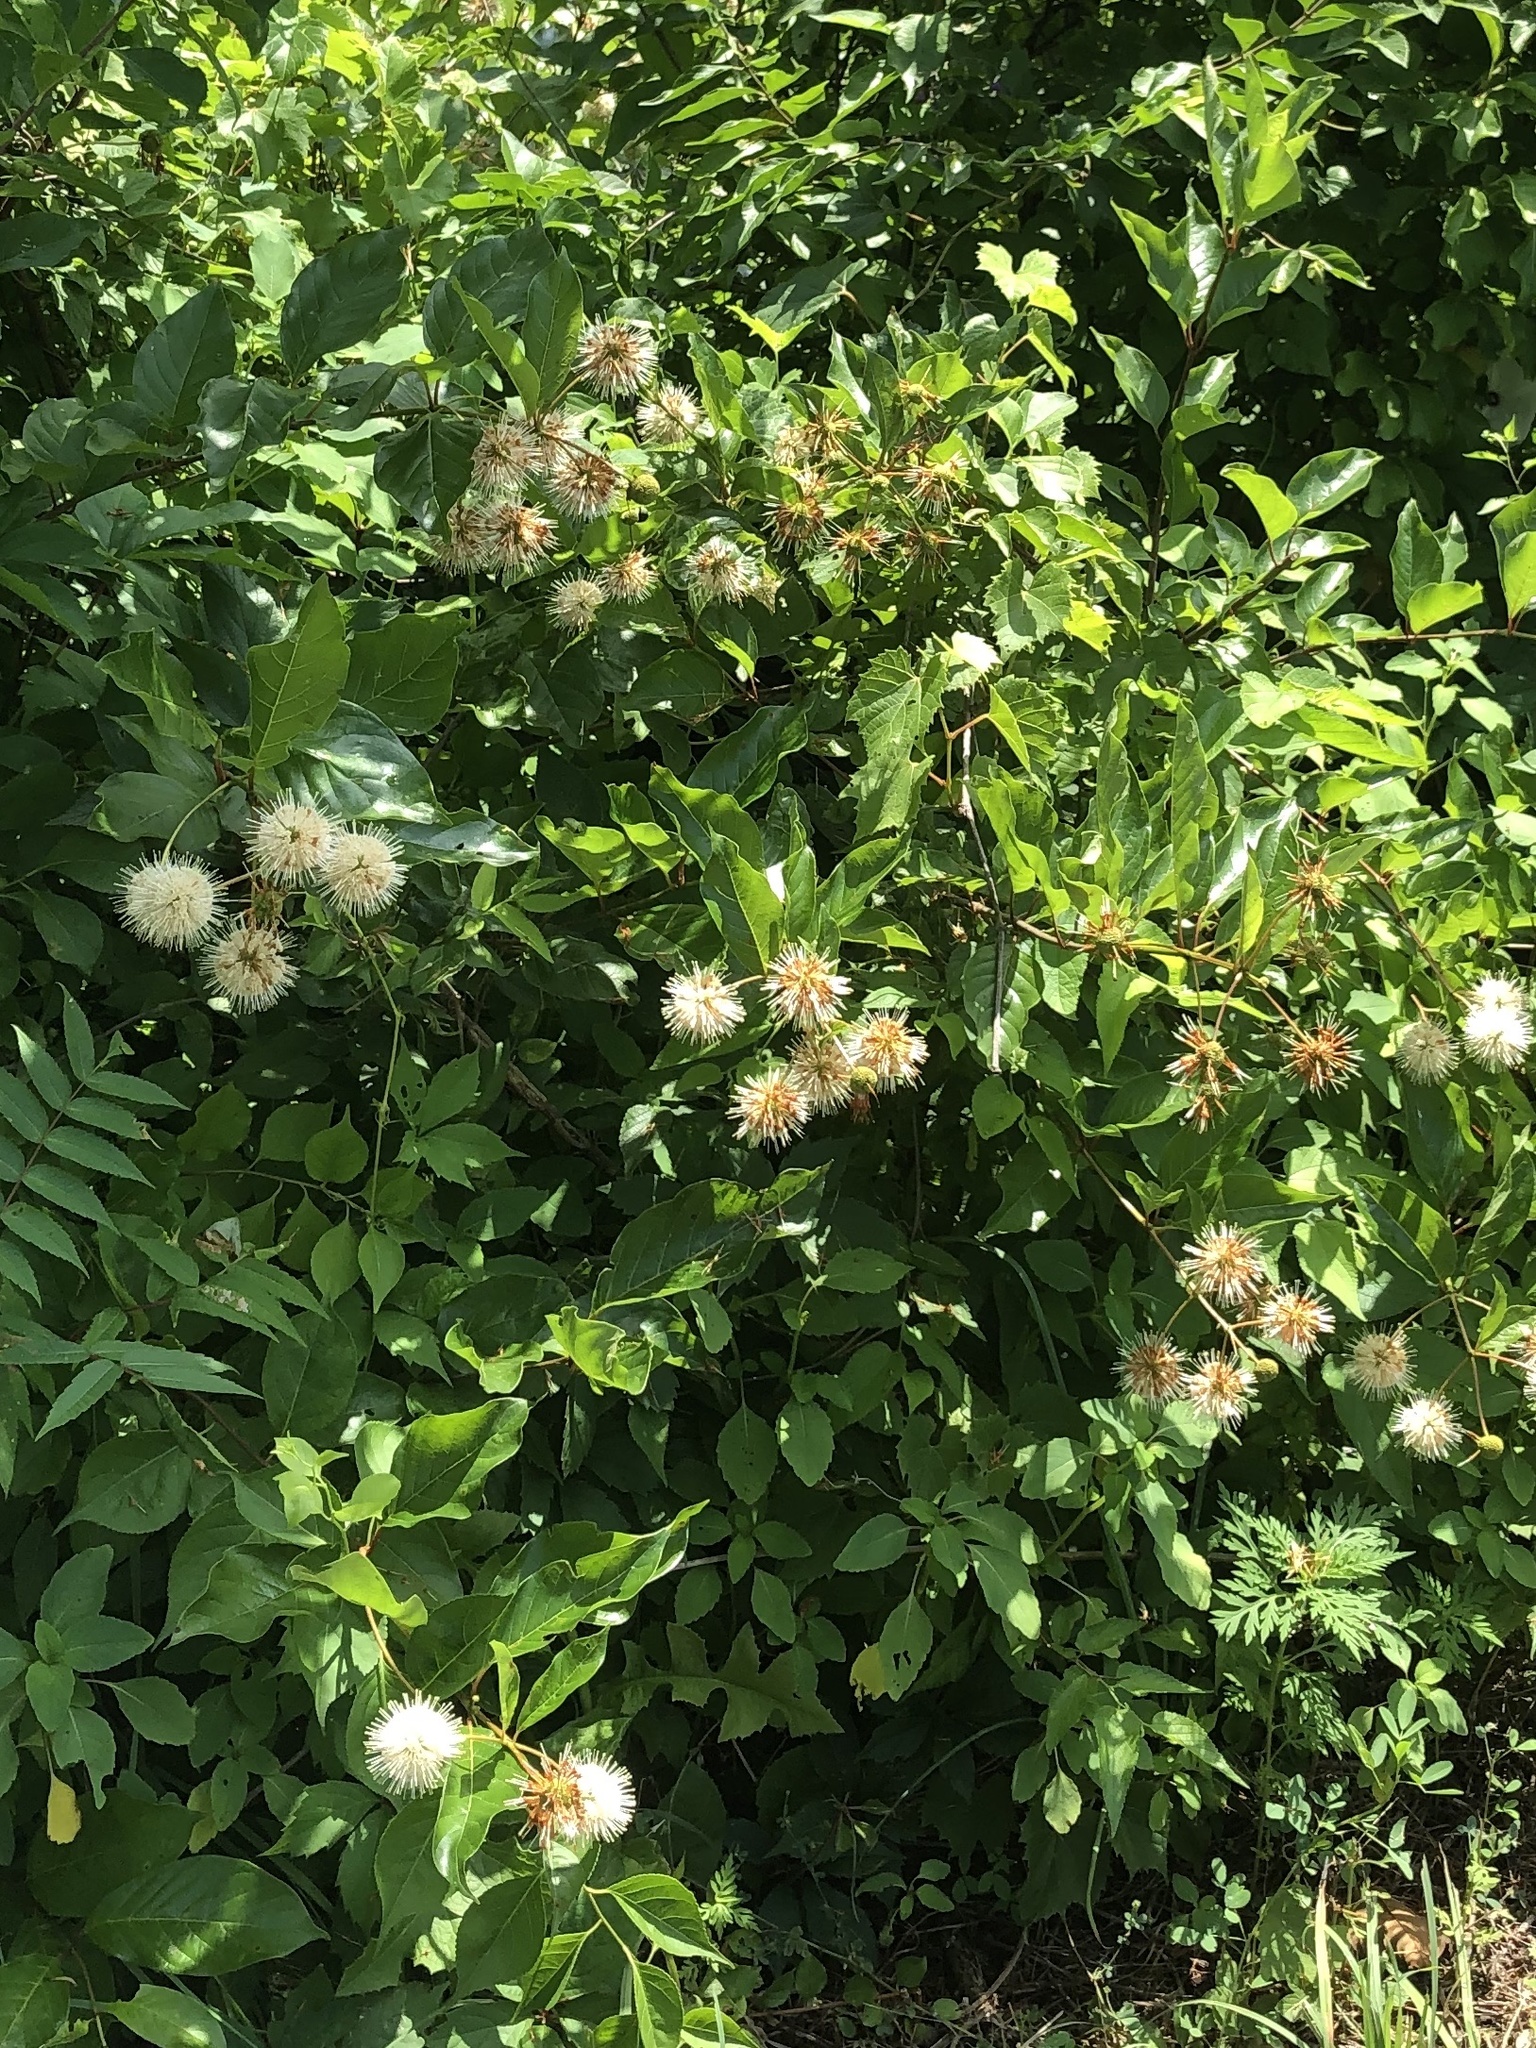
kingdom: Plantae
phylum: Tracheophyta
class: Magnoliopsida
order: Gentianales
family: Rubiaceae
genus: Cephalanthus
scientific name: Cephalanthus occidentalis
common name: Button-willow
